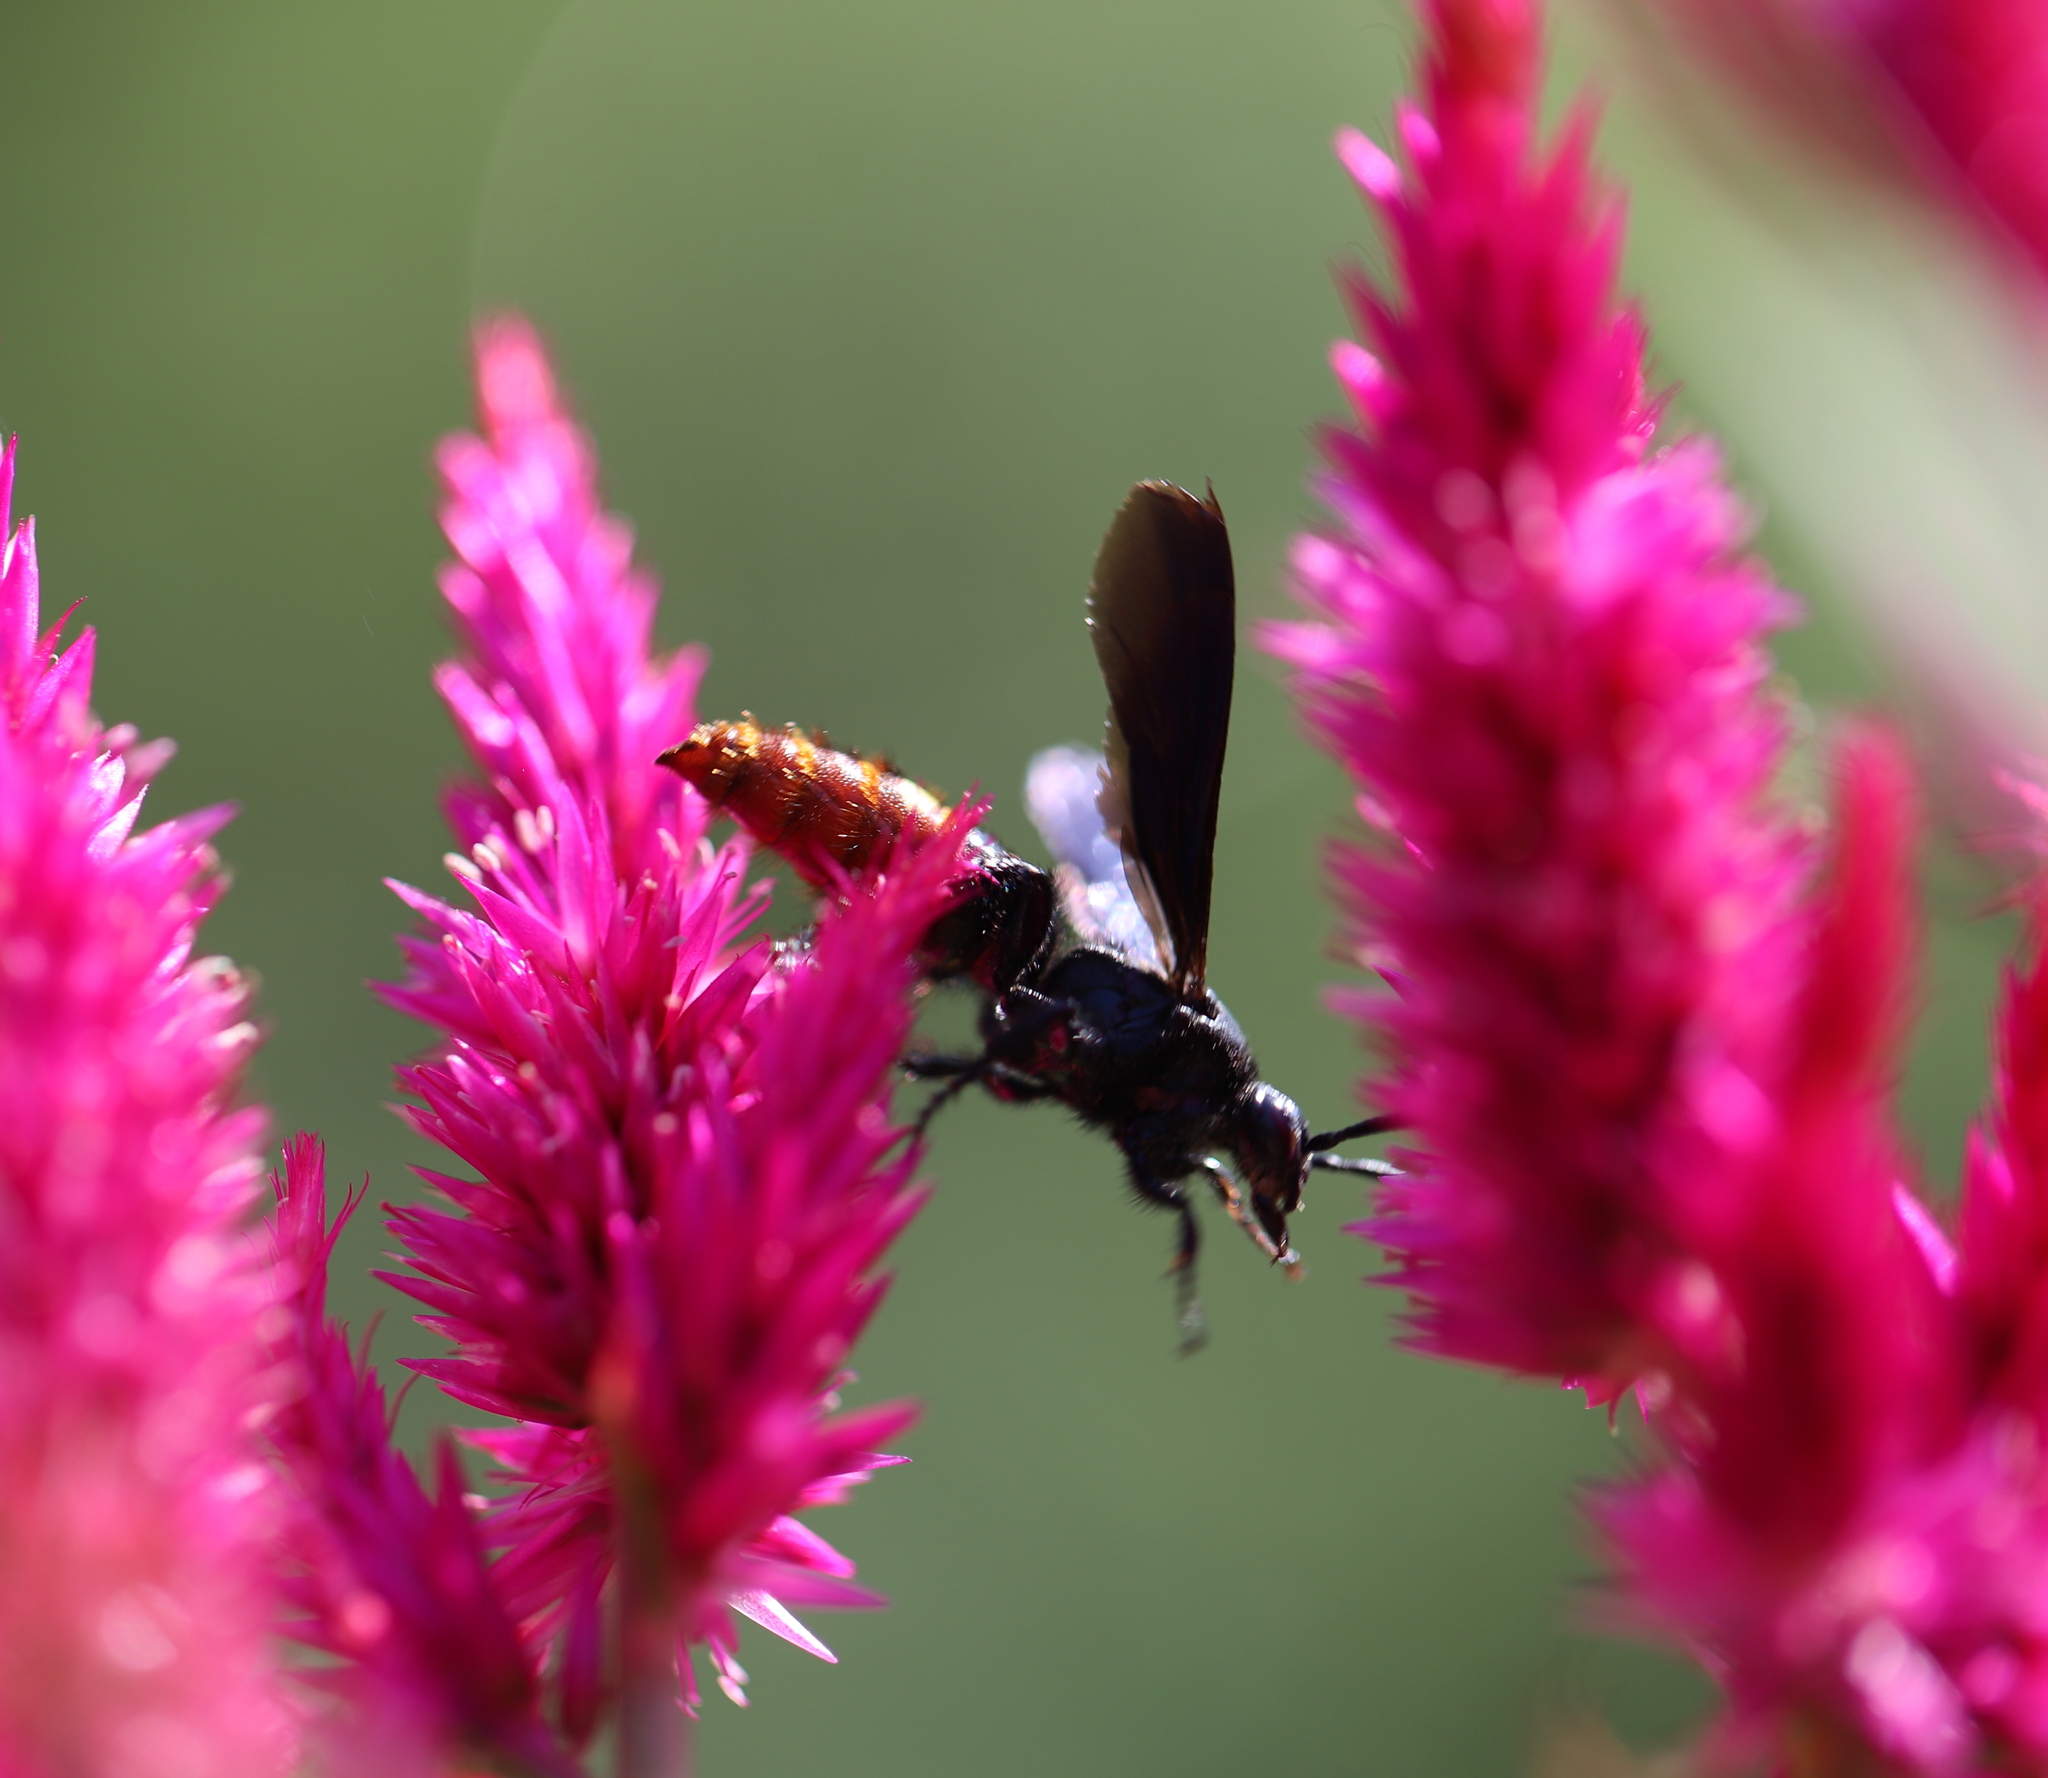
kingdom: Animalia
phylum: Arthropoda
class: Insecta
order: Hymenoptera
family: Scoliidae
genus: Scolia
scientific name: Scolia dubia
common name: Blue-winged scoliid wasp
